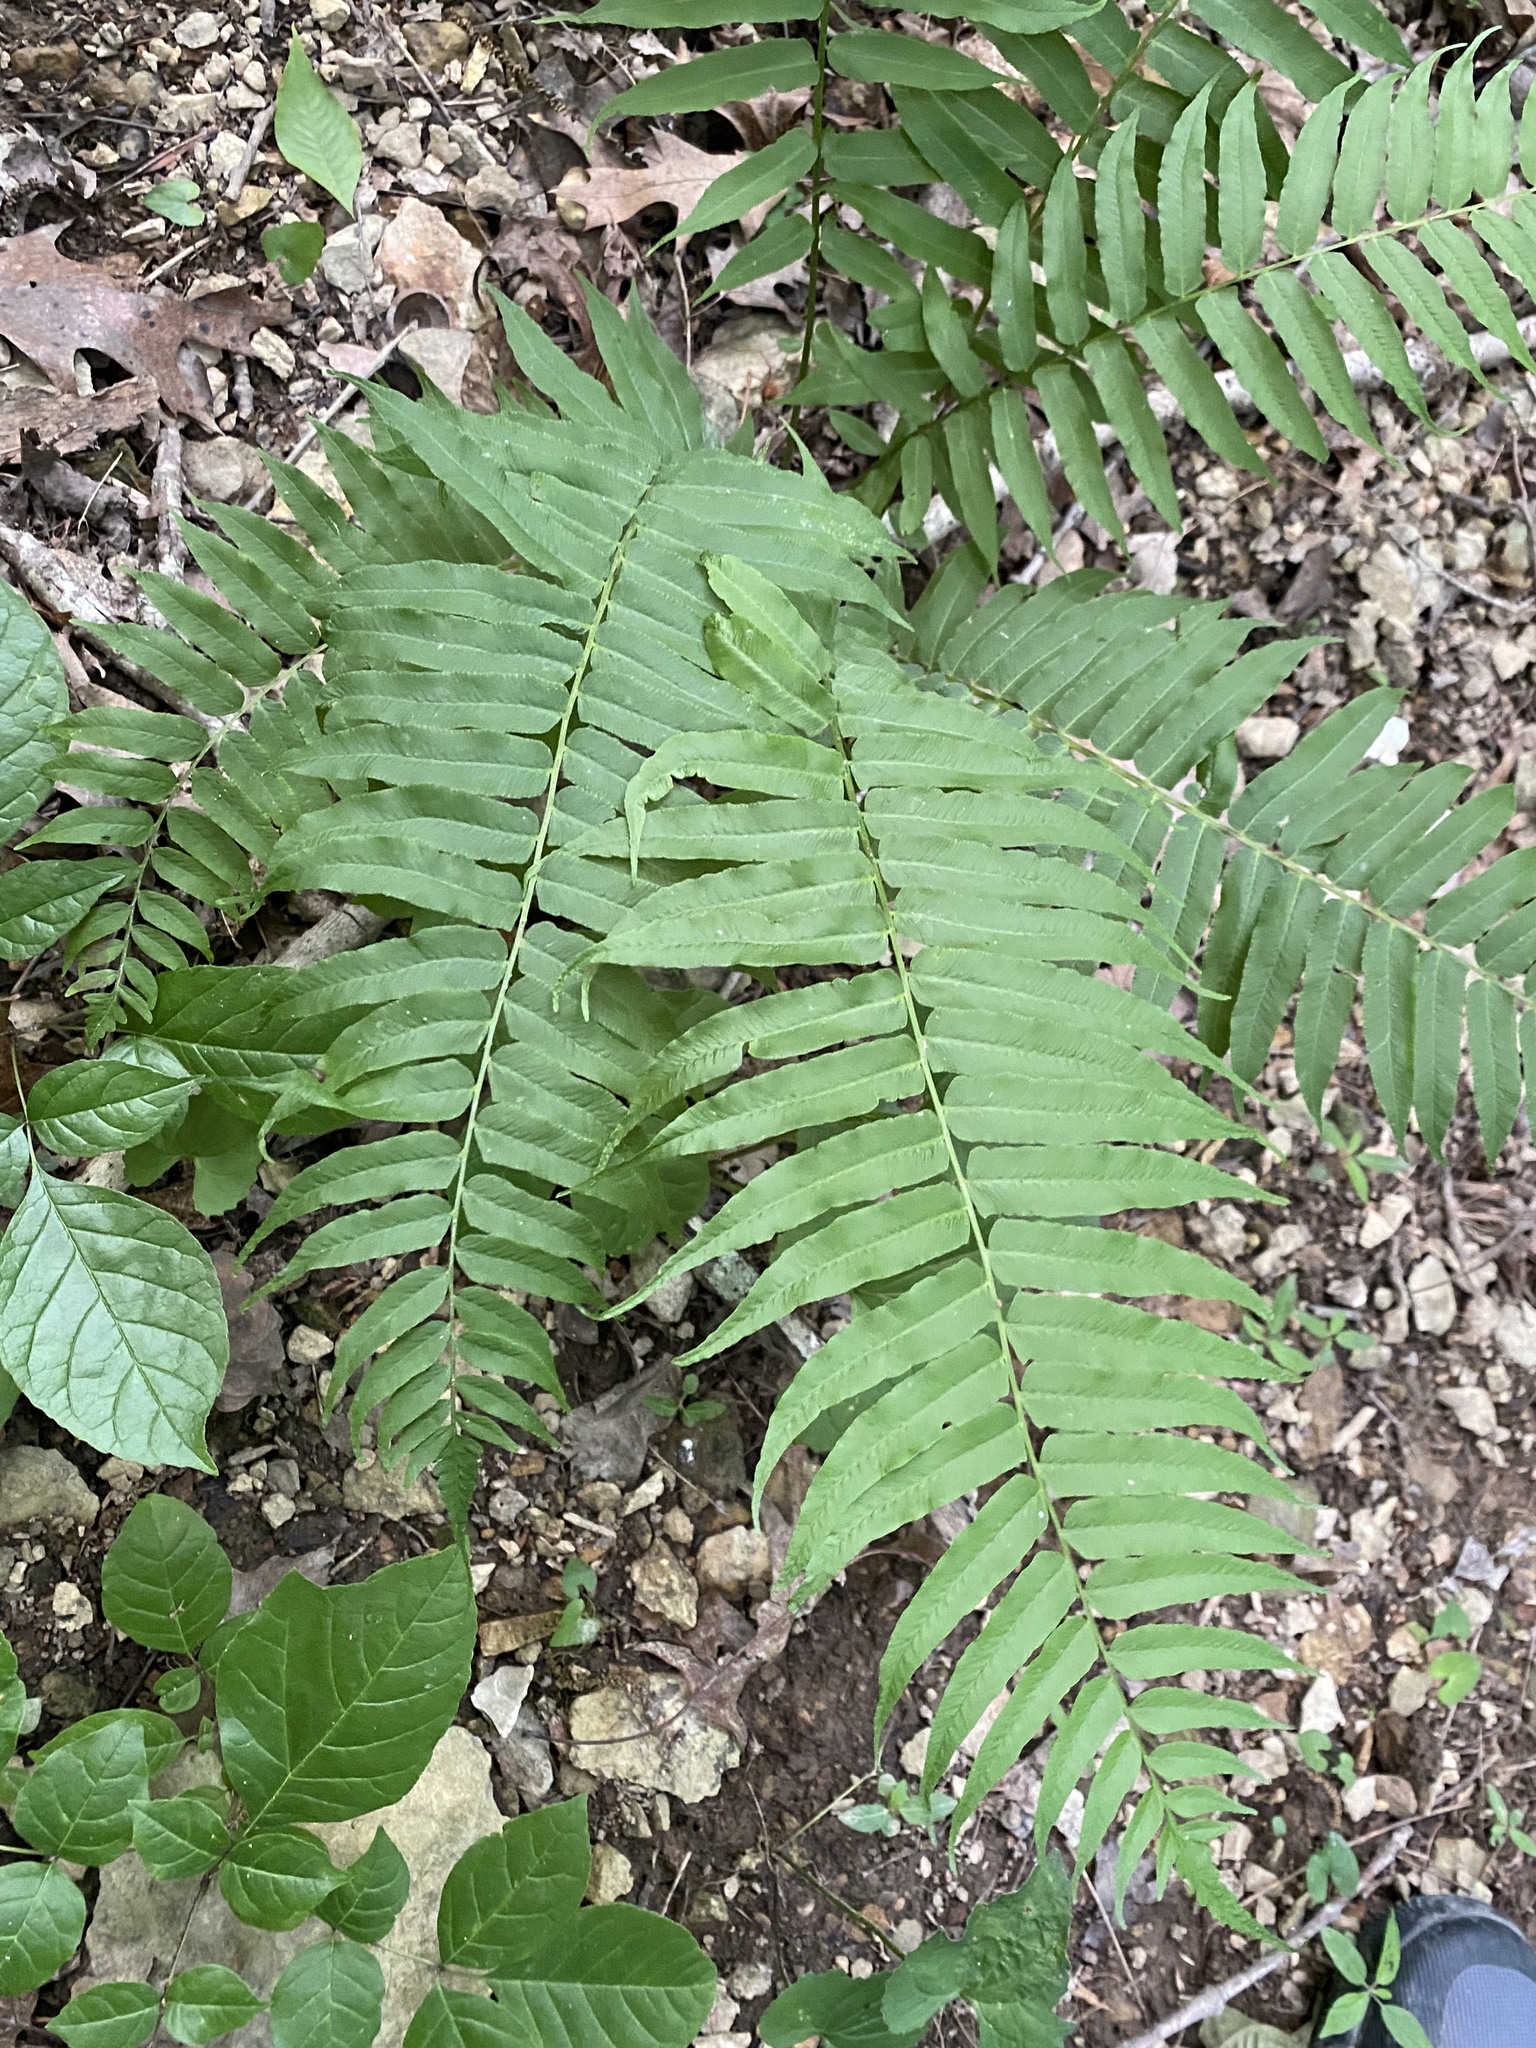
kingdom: Plantae
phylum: Tracheophyta
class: Polypodiopsida
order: Polypodiales
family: Diplaziopsidaceae
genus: Homalosorus
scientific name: Homalosorus pycnocarpos
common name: Glade fern
